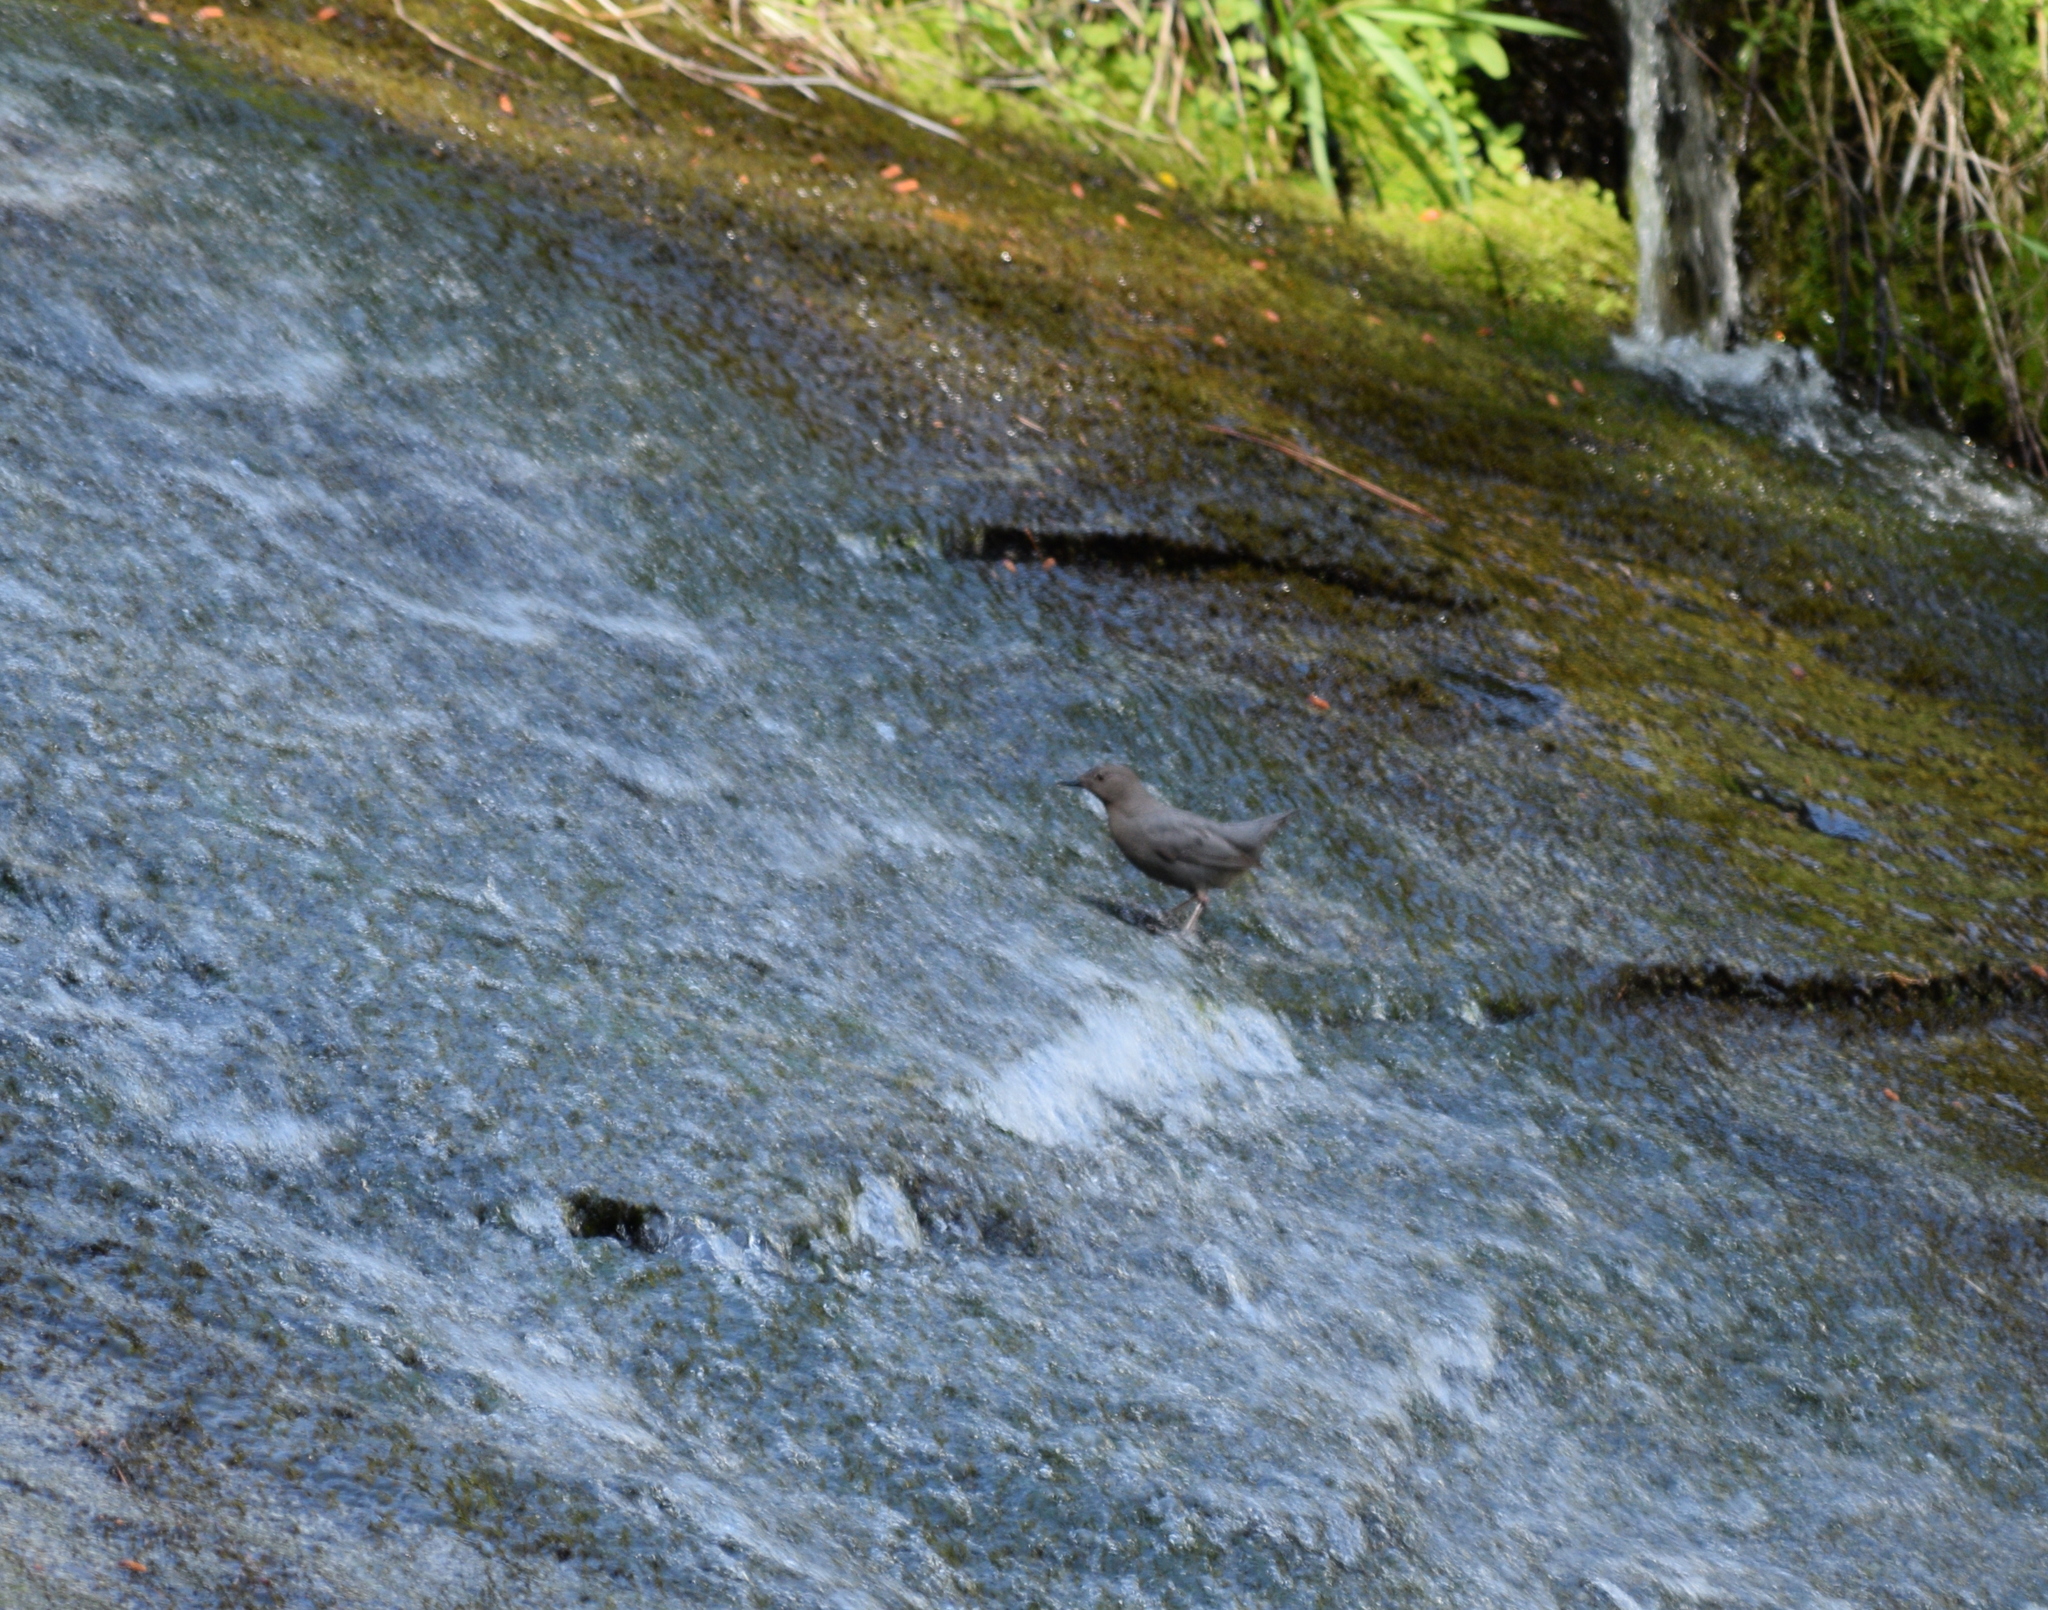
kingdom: Animalia
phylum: Chordata
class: Aves
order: Passeriformes
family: Cinclidae
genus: Cinclus
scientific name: Cinclus mexicanus
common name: American dipper
